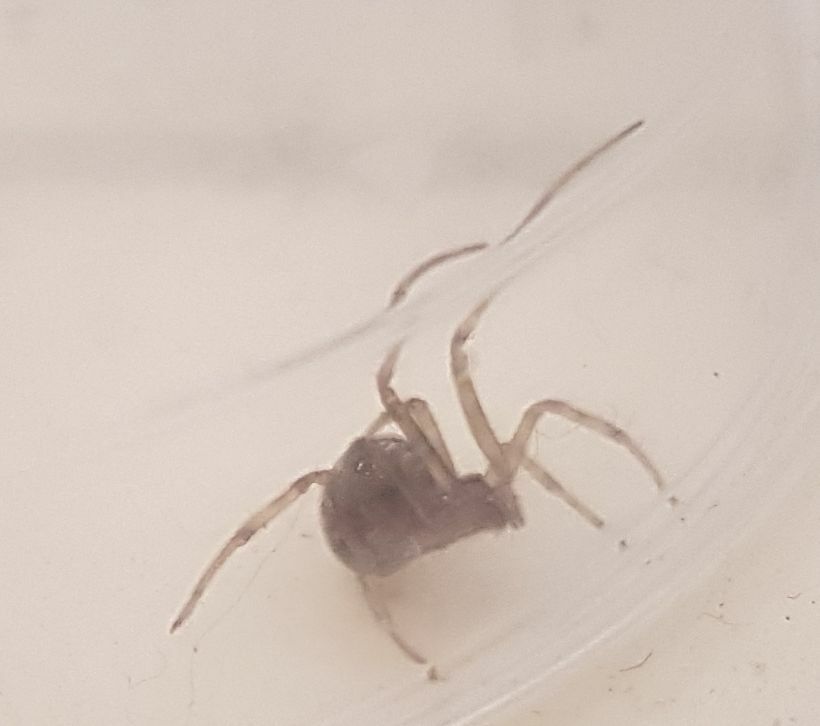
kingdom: Animalia
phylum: Arthropoda
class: Arachnida
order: Araneae
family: Theridiidae
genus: Steatoda
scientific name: Steatoda triangulosa
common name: Triangulate bud spider
